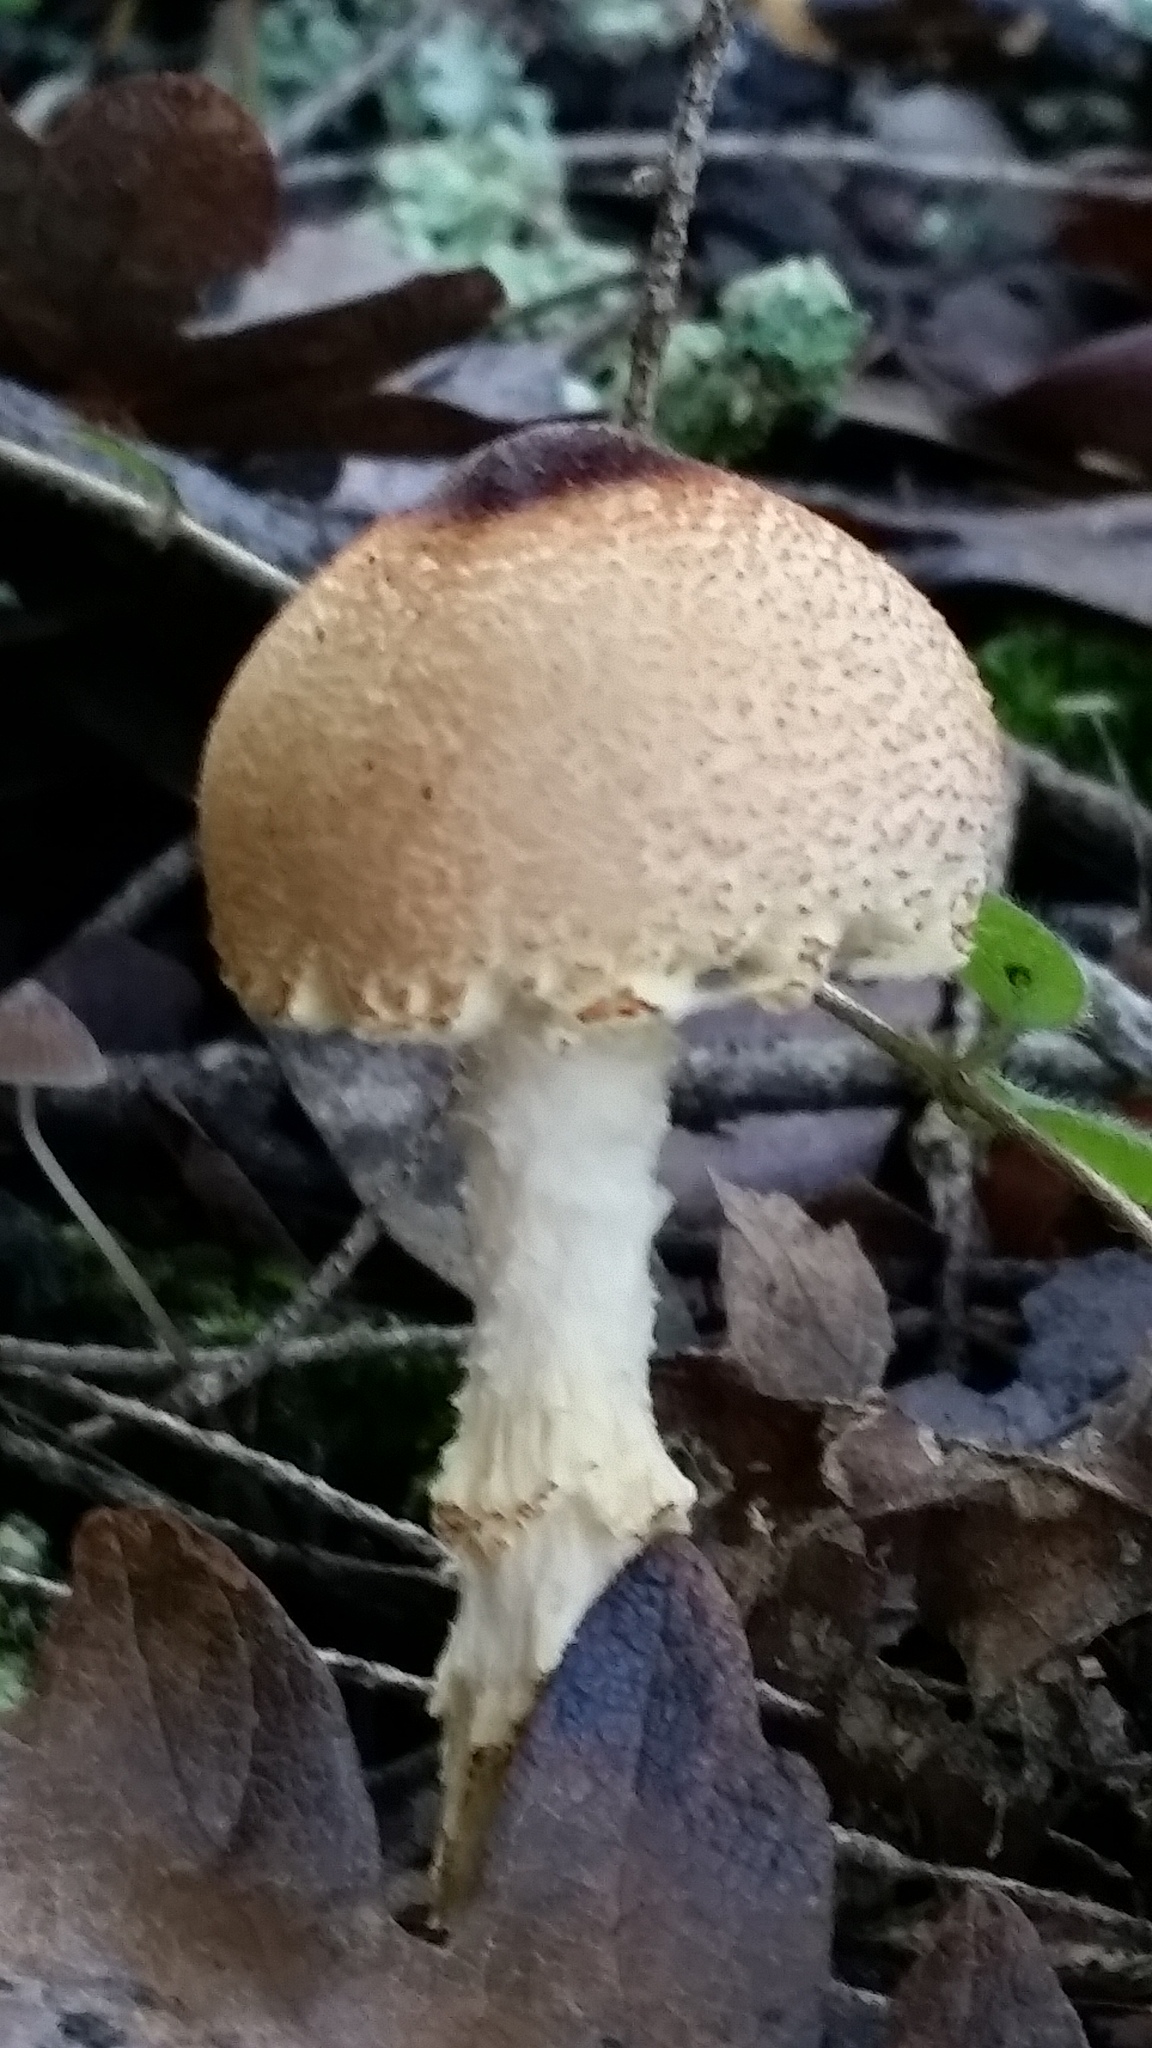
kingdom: Fungi
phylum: Basidiomycota
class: Agaricomycetes
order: Agaricales
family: Agaricaceae
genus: Lepiota
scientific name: Lepiota magnispora
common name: Yellowfoot dapperling
